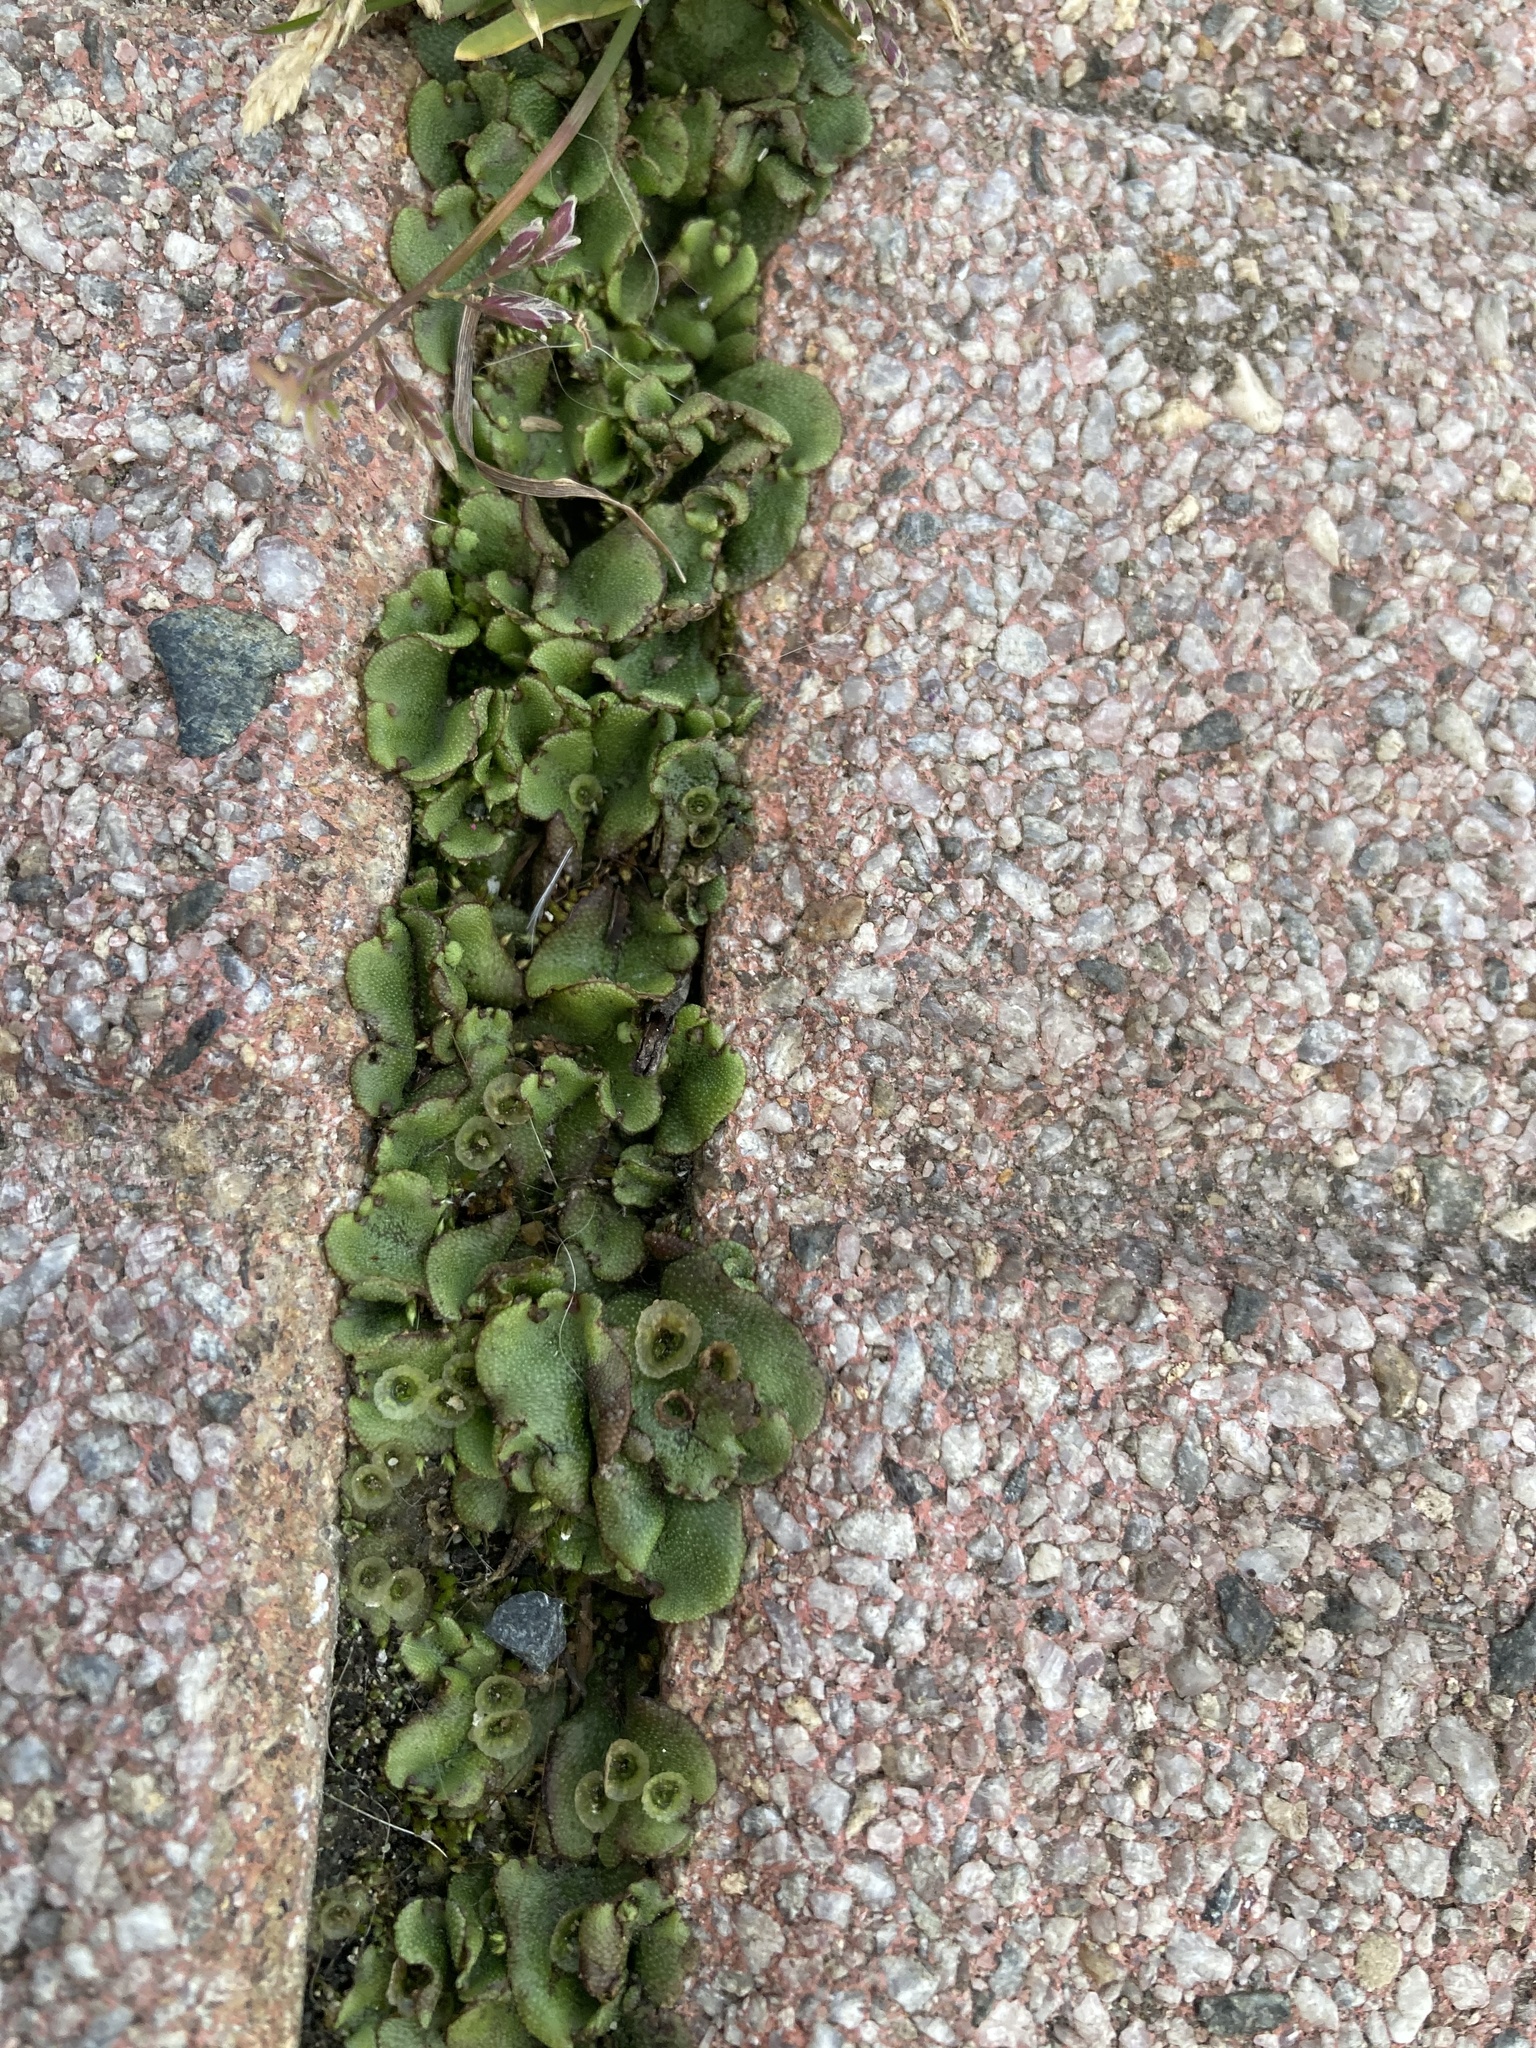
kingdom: Plantae
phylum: Marchantiophyta
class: Marchantiopsida
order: Marchantiales
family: Marchantiaceae
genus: Marchantia
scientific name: Marchantia polymorpha
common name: Common liverwort
